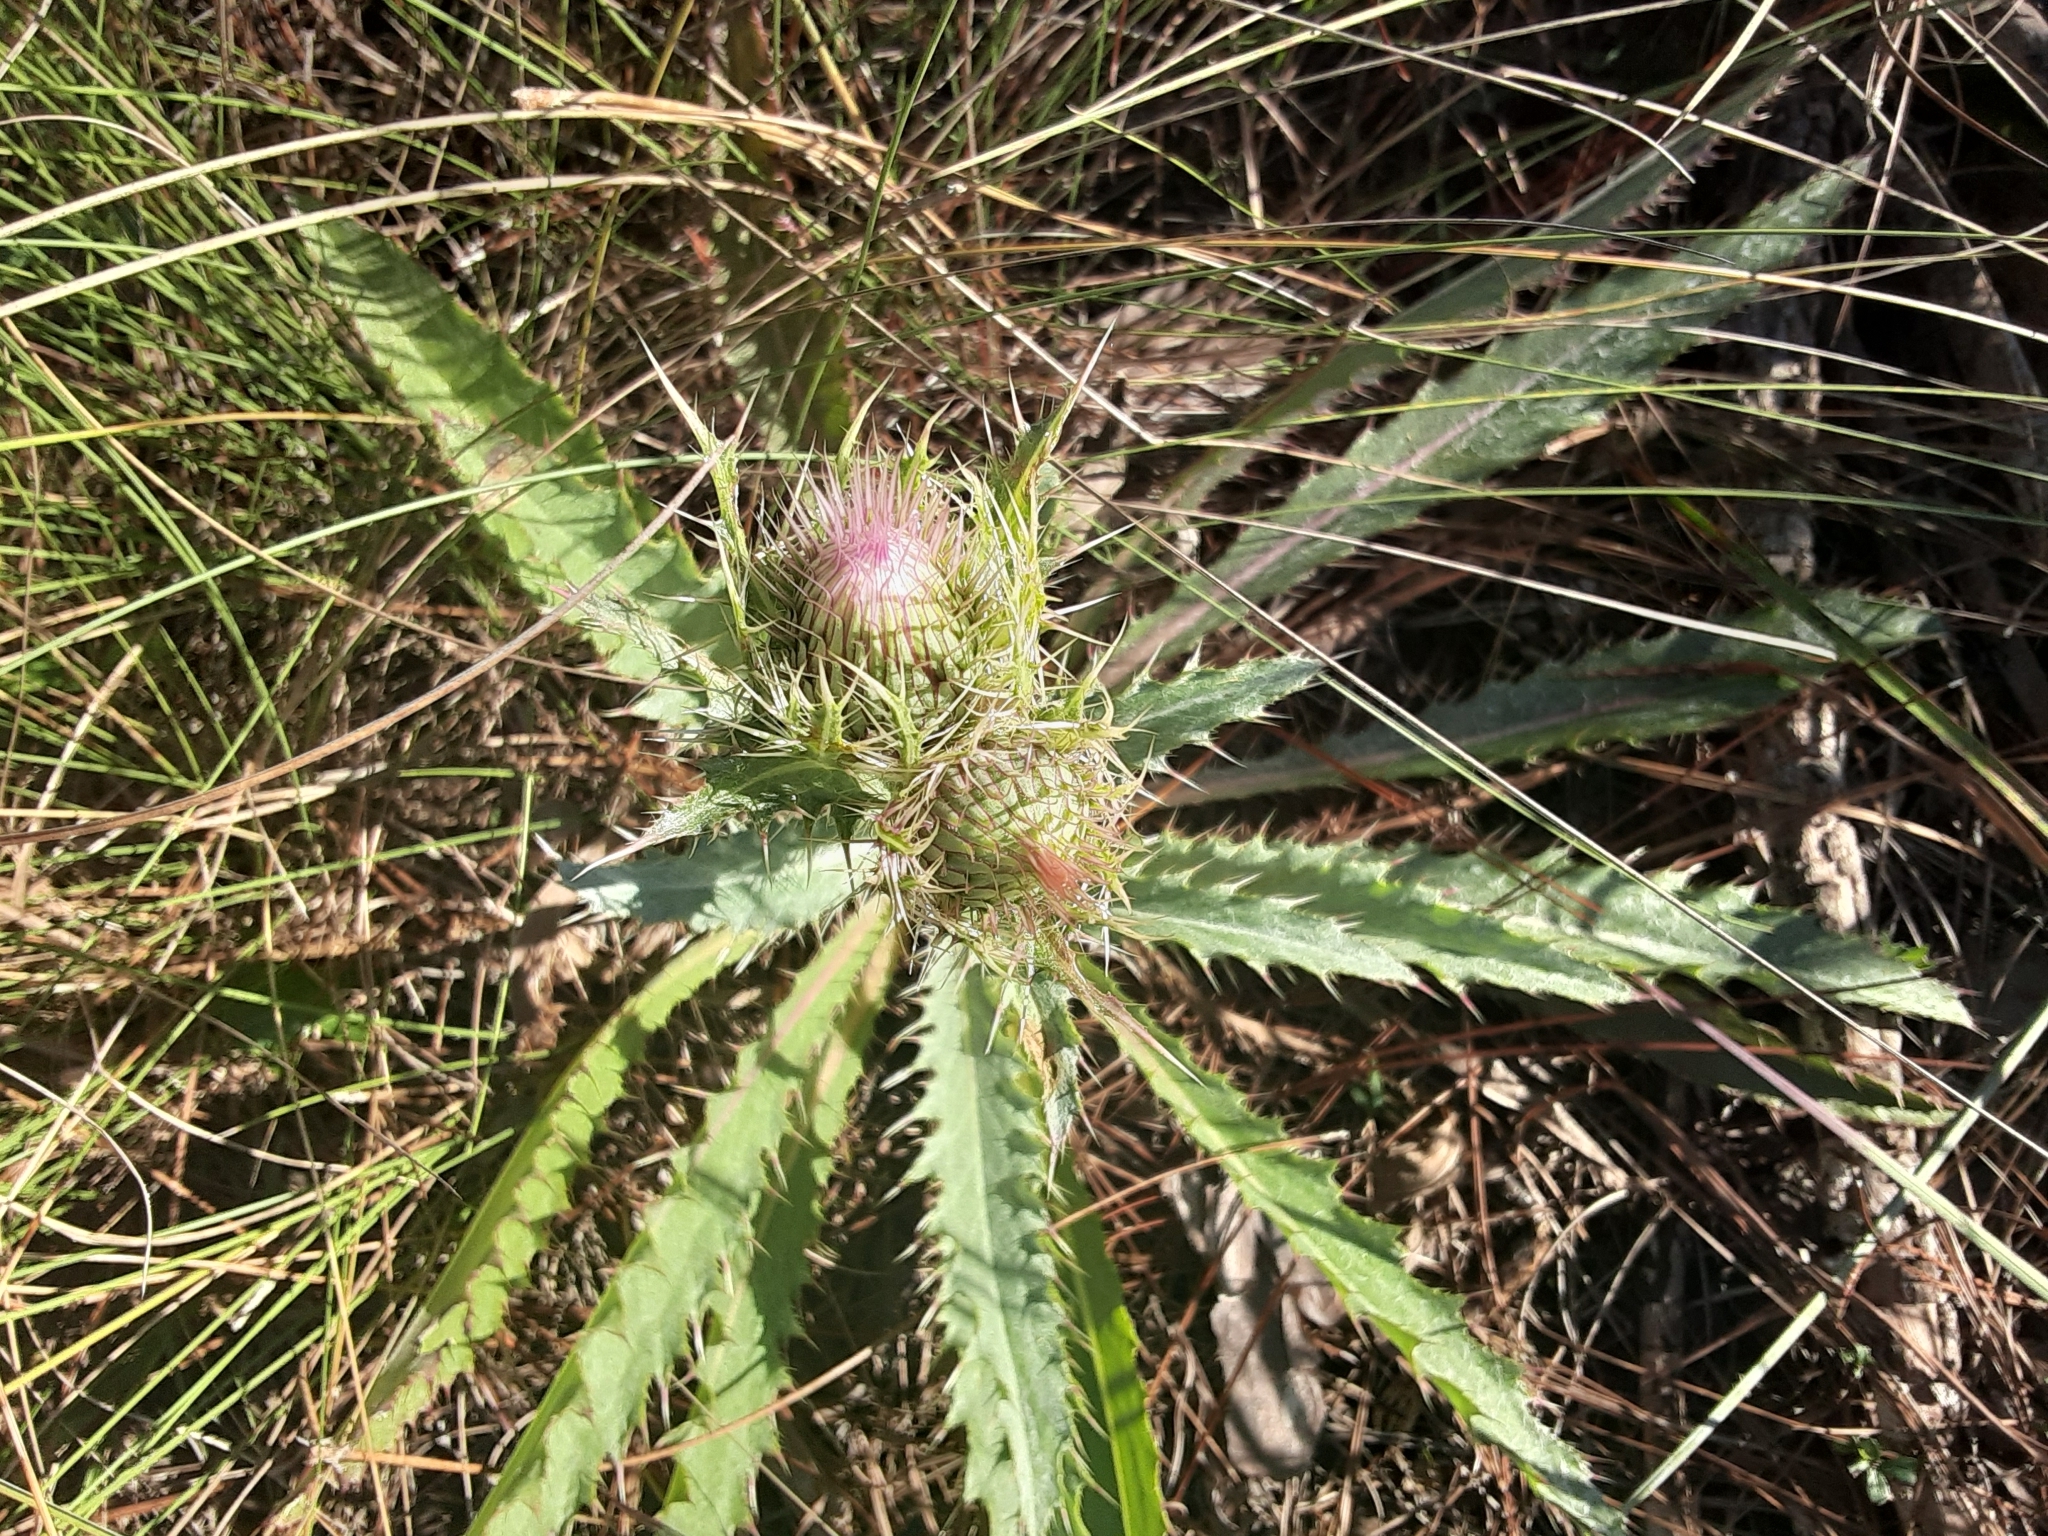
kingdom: Plantae
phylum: Tracheophyta
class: Magnoliopsida
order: Asterales
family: Asteraceae
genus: Cirsium
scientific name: Cirsium horridulum
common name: Bristly thistle
